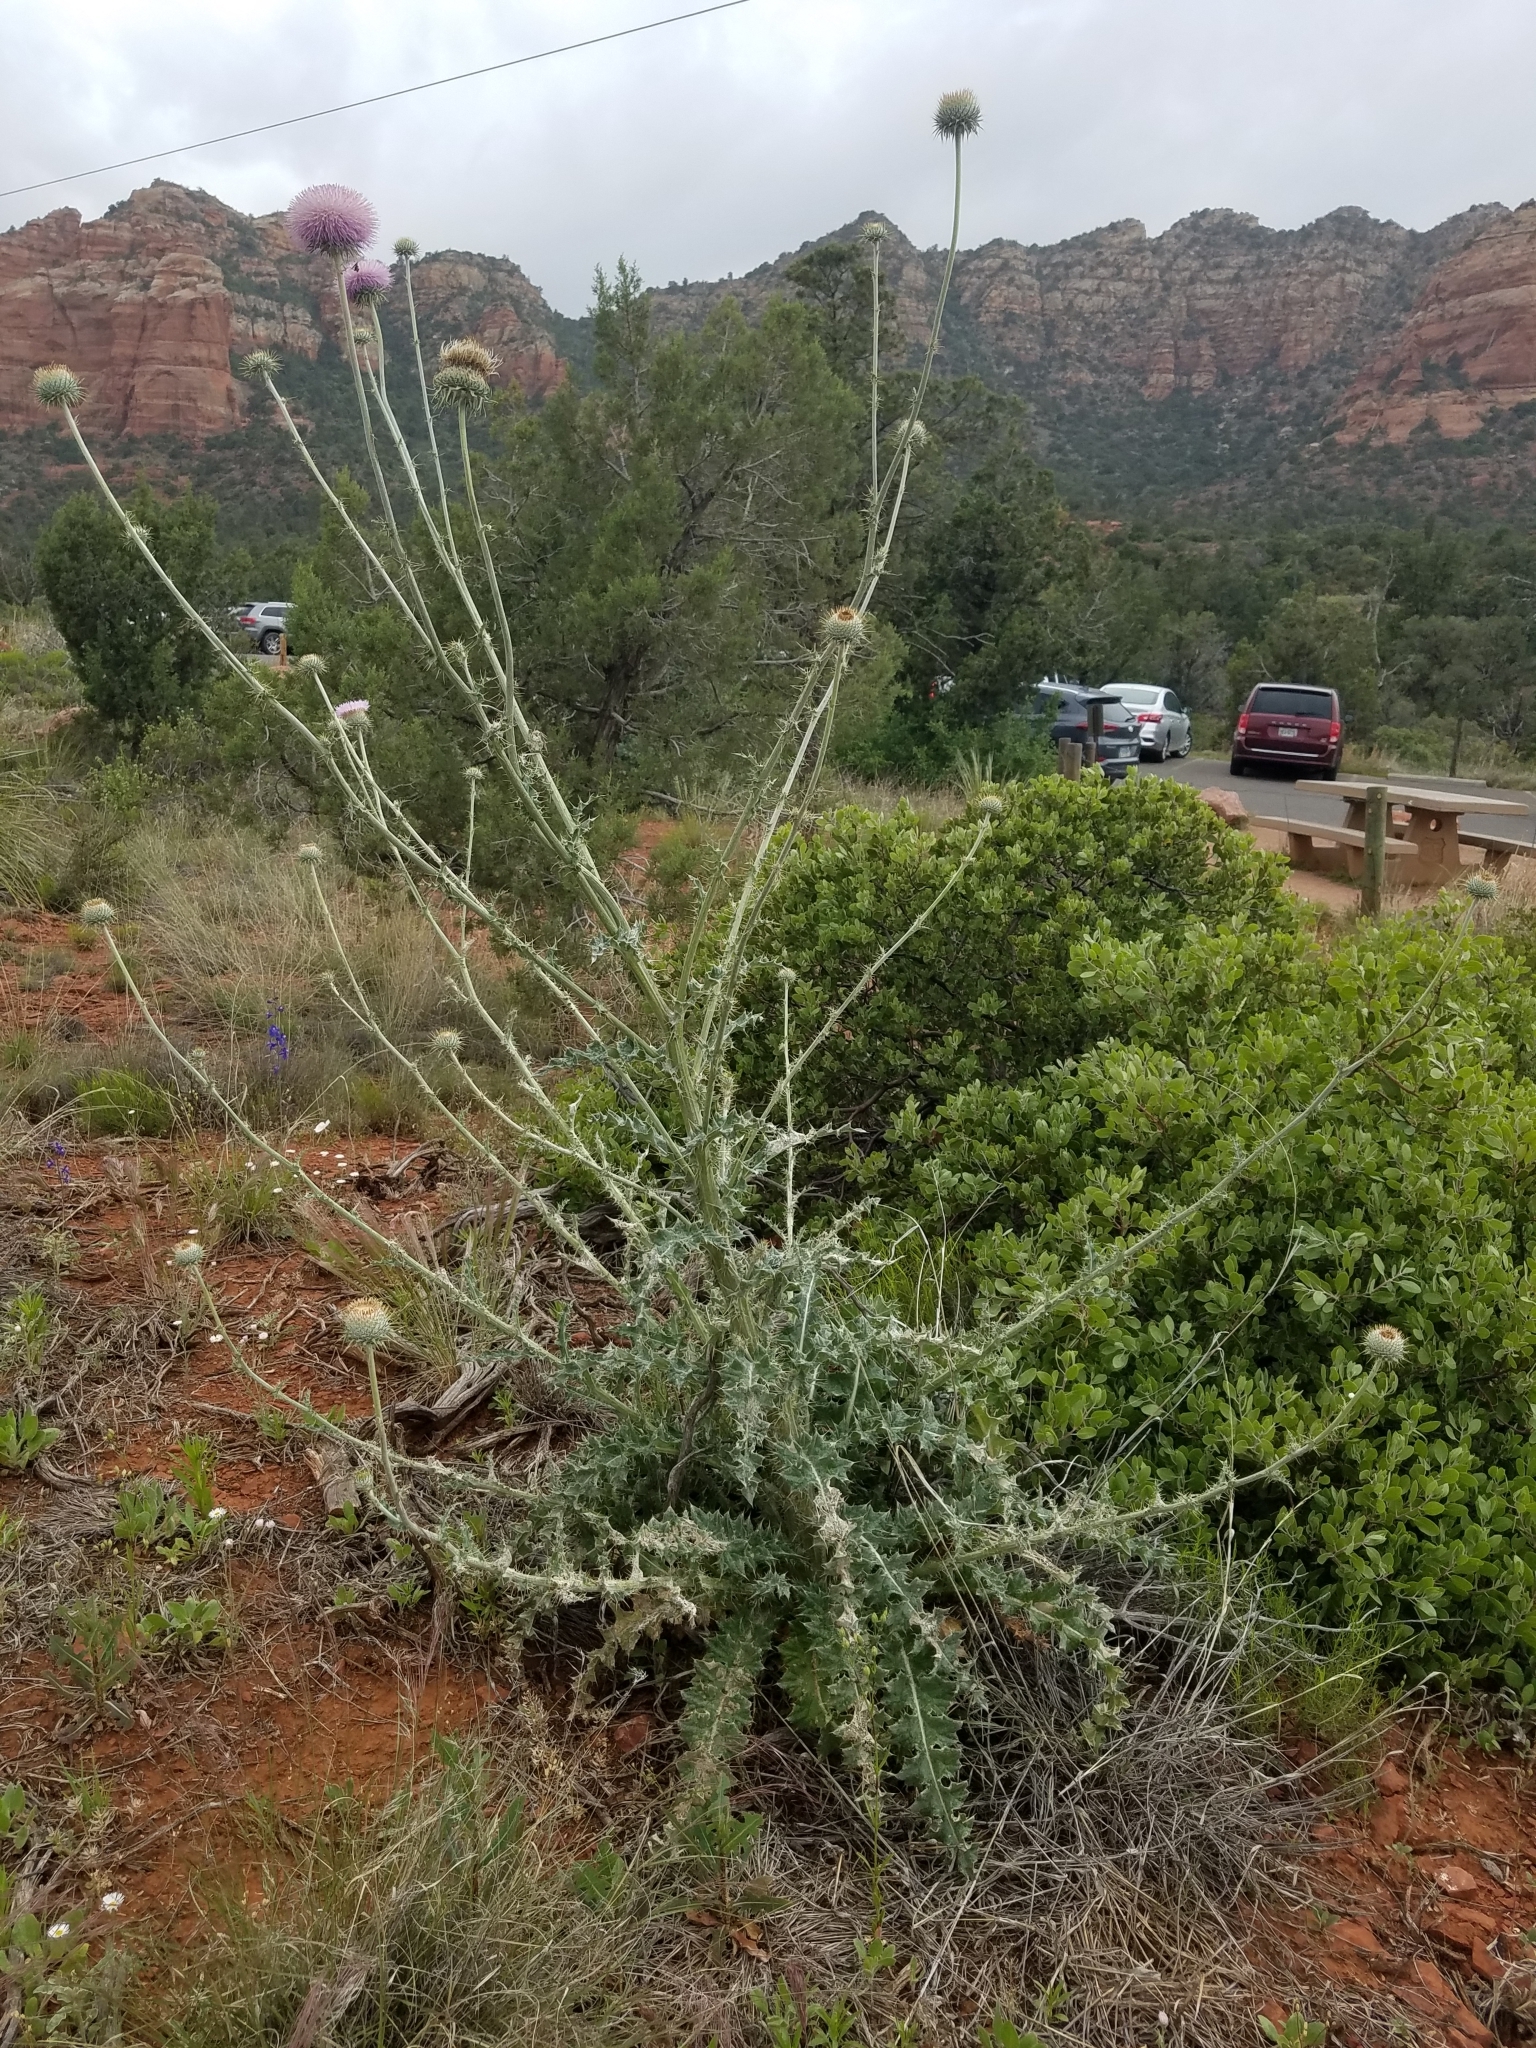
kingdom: Plantae
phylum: Tracheophyta
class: Magnoliopsida
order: Asterales
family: Asteraceae
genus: Cirsium
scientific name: Cirsium neomexicanum
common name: New mexico thistle
